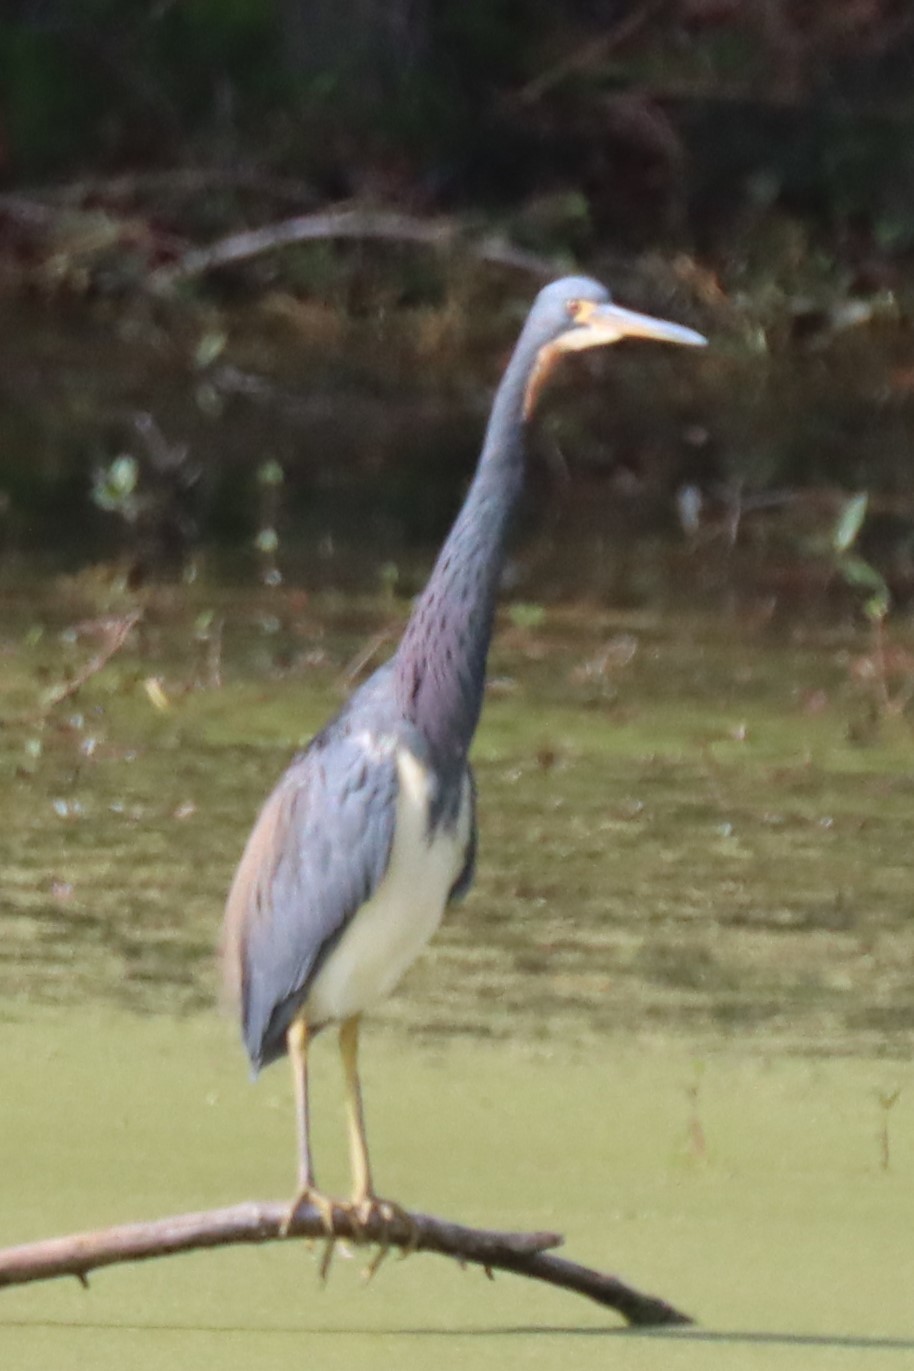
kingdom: Animalia
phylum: Chordata
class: Aves
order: Pelecaniformes
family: Ardeidae
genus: Egretta
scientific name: Egretta tricolor
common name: Tricolored heron
